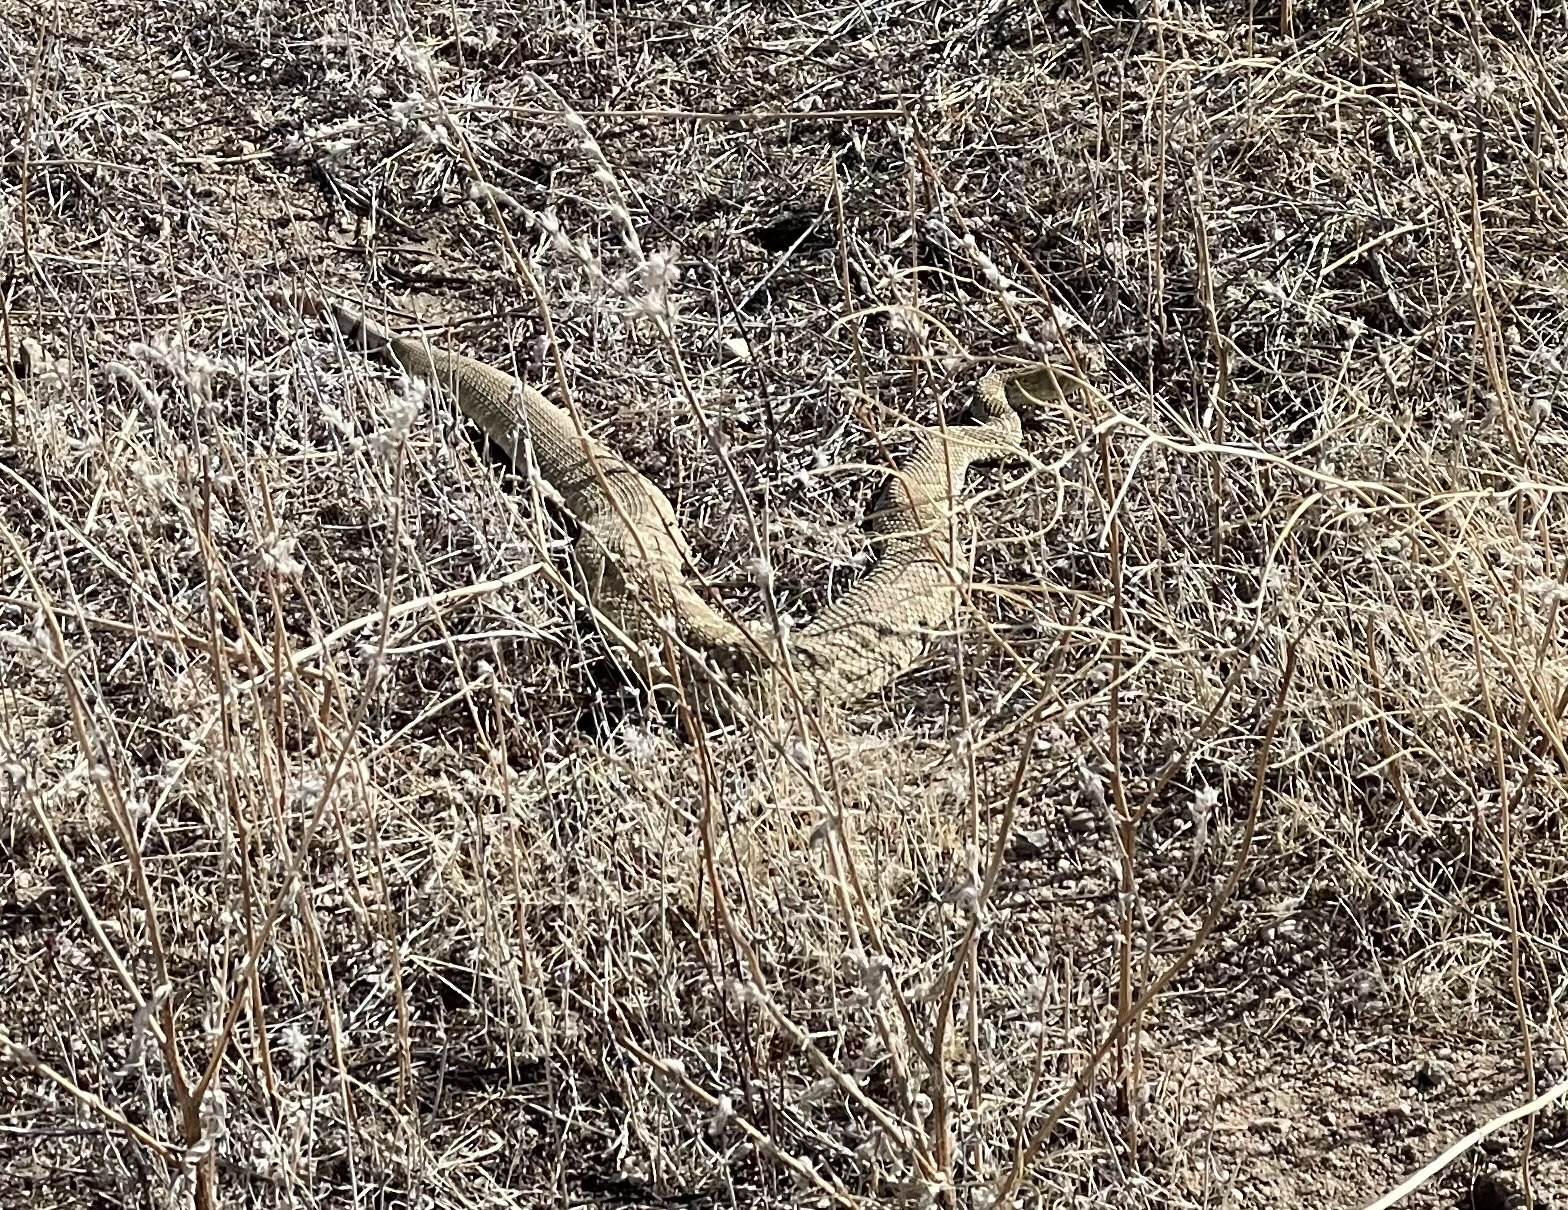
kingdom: Animalia
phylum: Chordata
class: Squamata
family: Viperidae
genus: Crotalus
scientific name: Crotalus scutulatus
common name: Scutulatus
